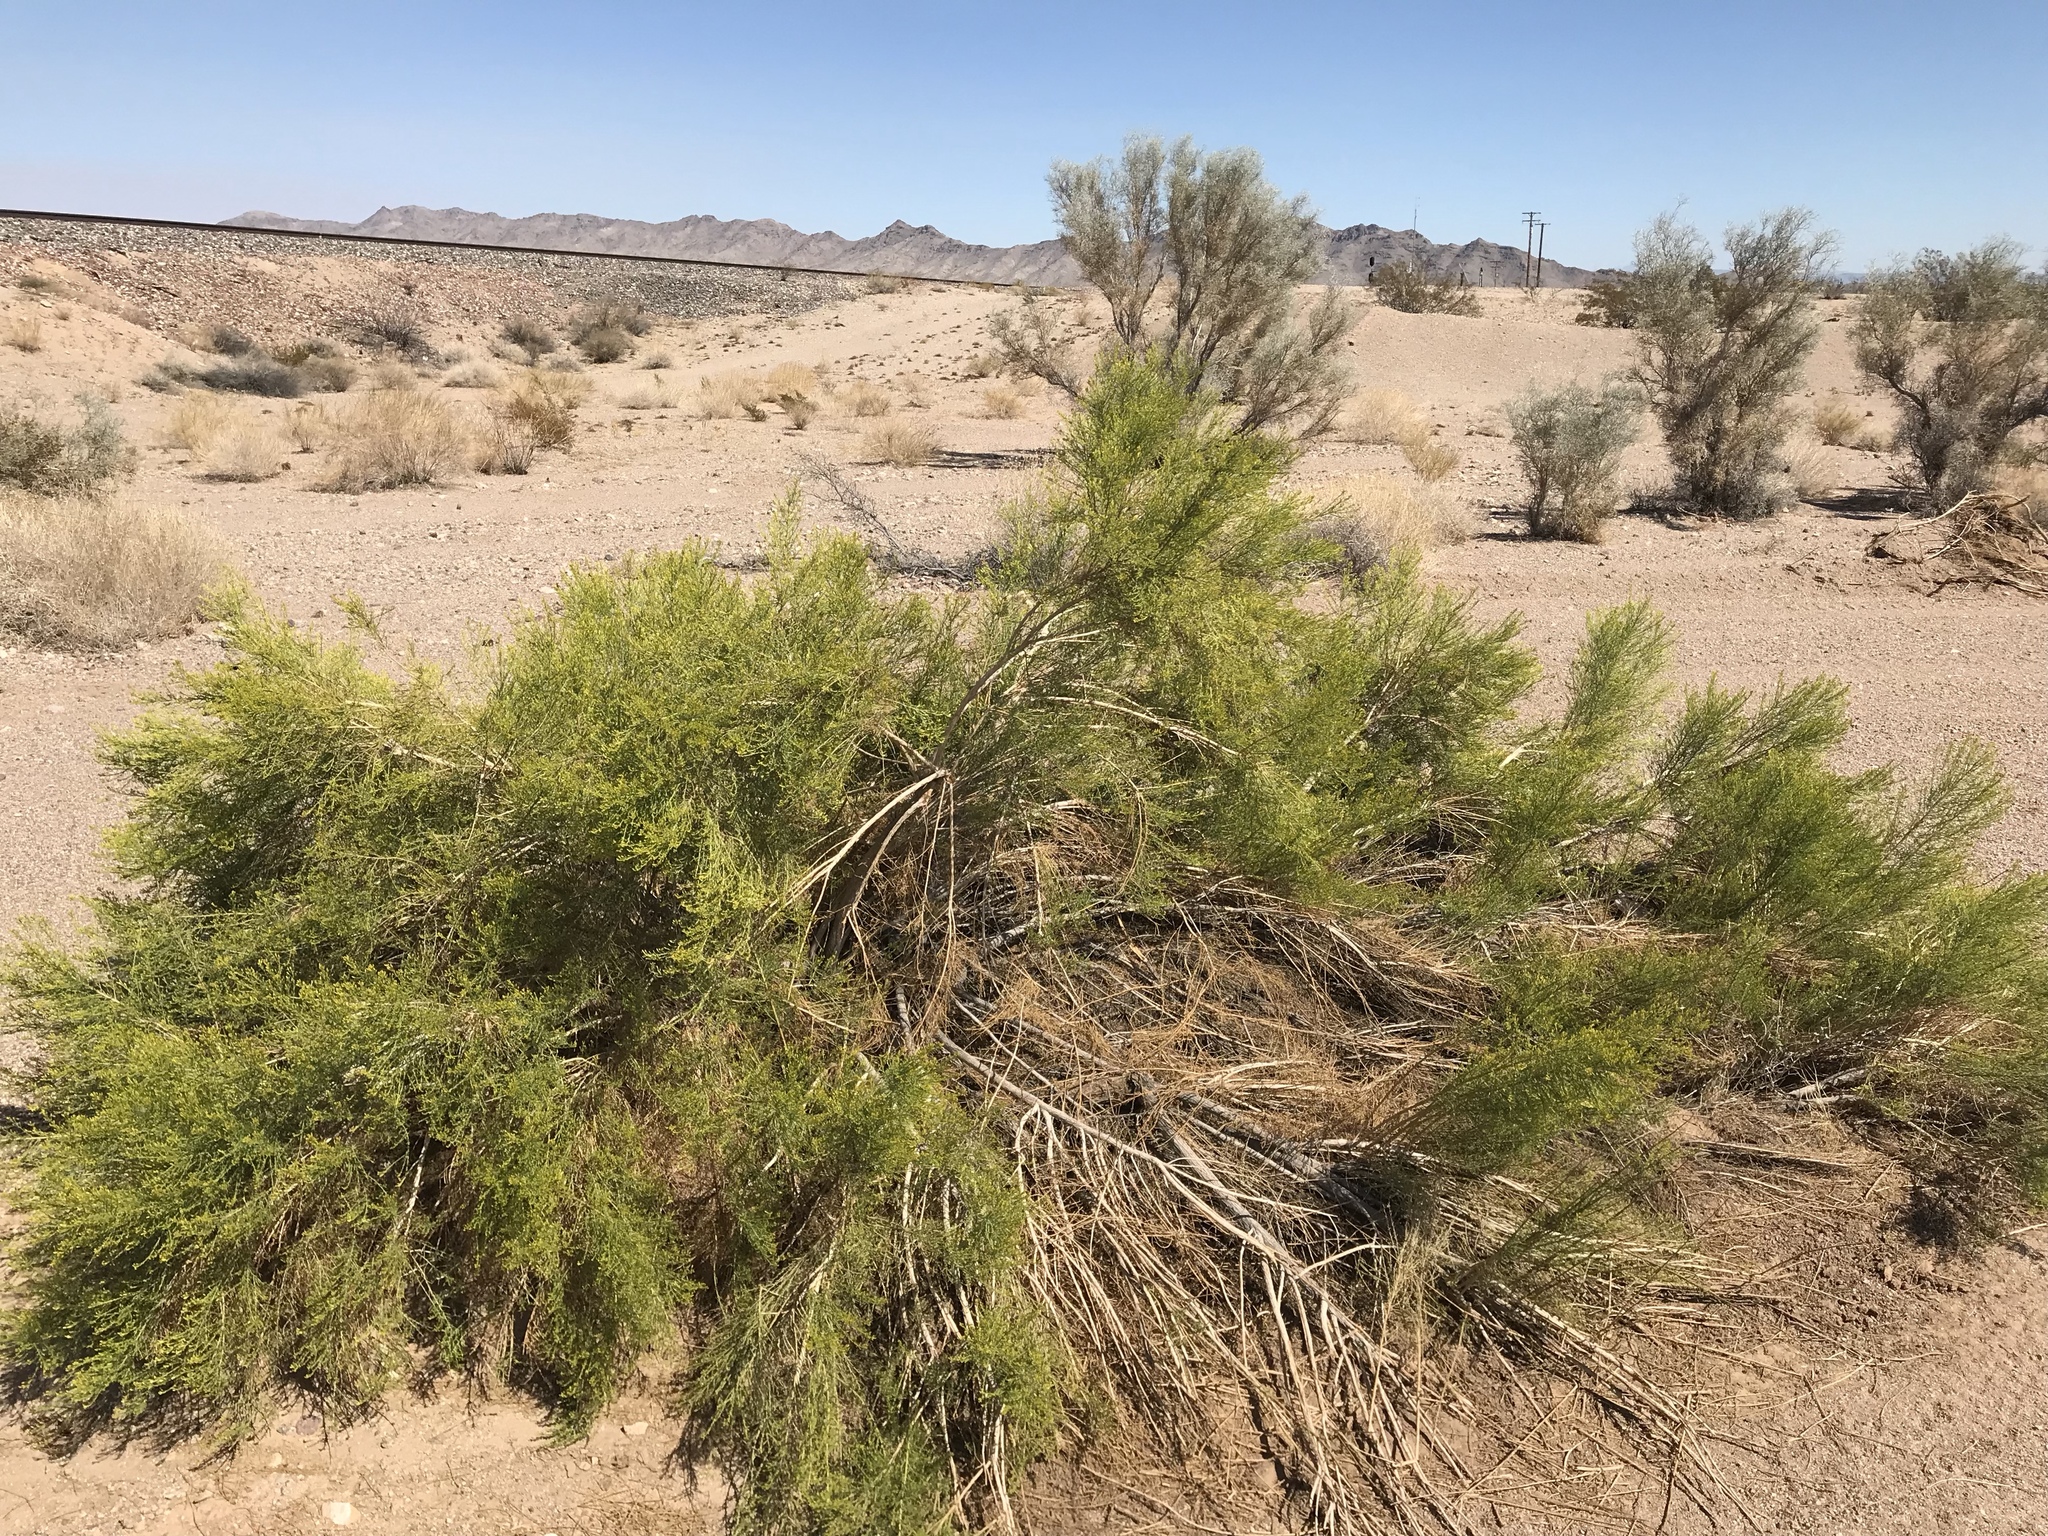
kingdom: Plantae
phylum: Tracheophyta
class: Magnoliopsida
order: Asterales
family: Asteraceae
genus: Baccharis
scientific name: Baccharis sarothroides
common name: Desert-broom
